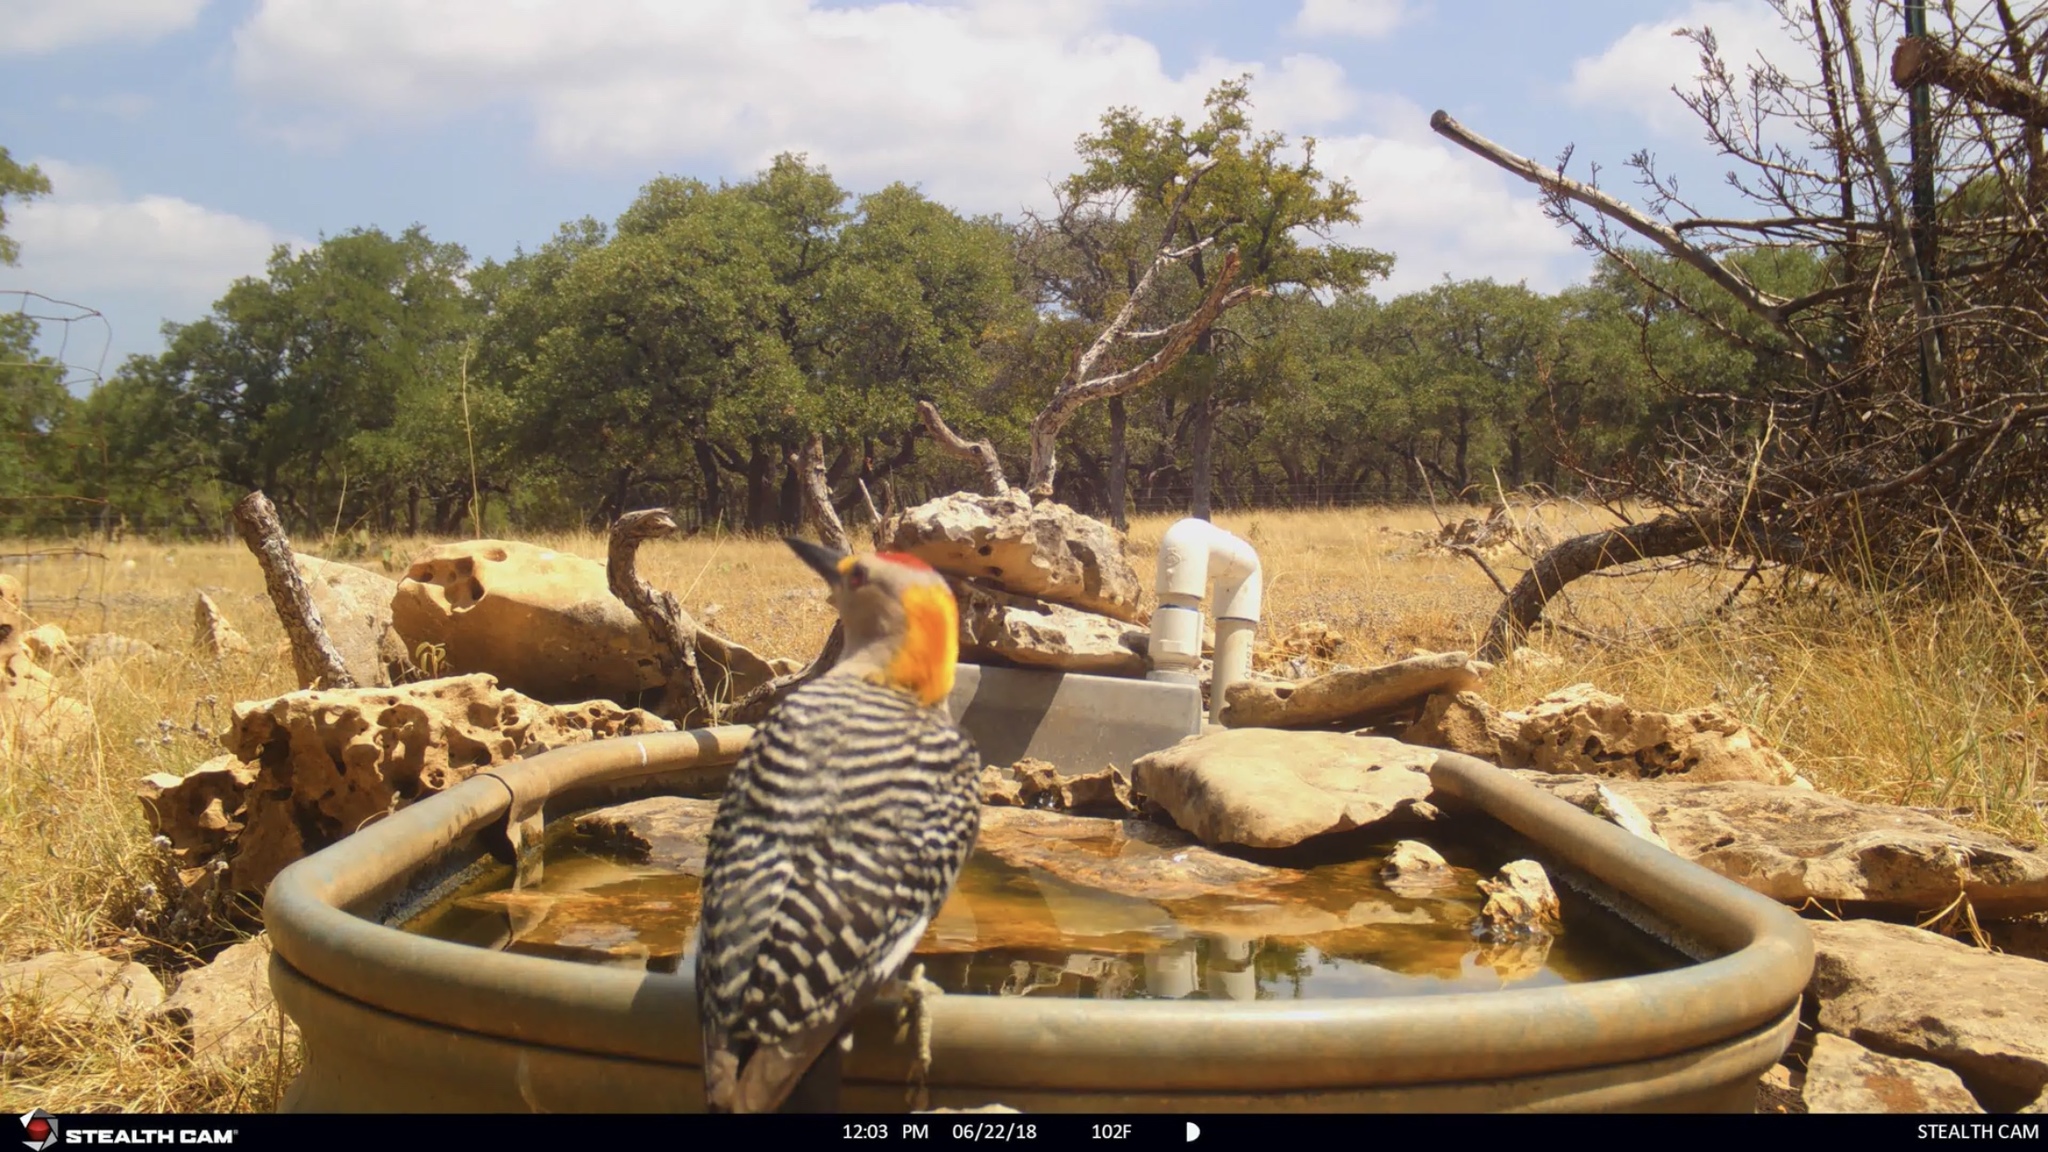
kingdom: Animalia
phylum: Chordata
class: Aves
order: Piciformes
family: Picidae
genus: Melanerpes
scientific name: Melanerpes aurifrons
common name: Golden-fronted woodpecker
